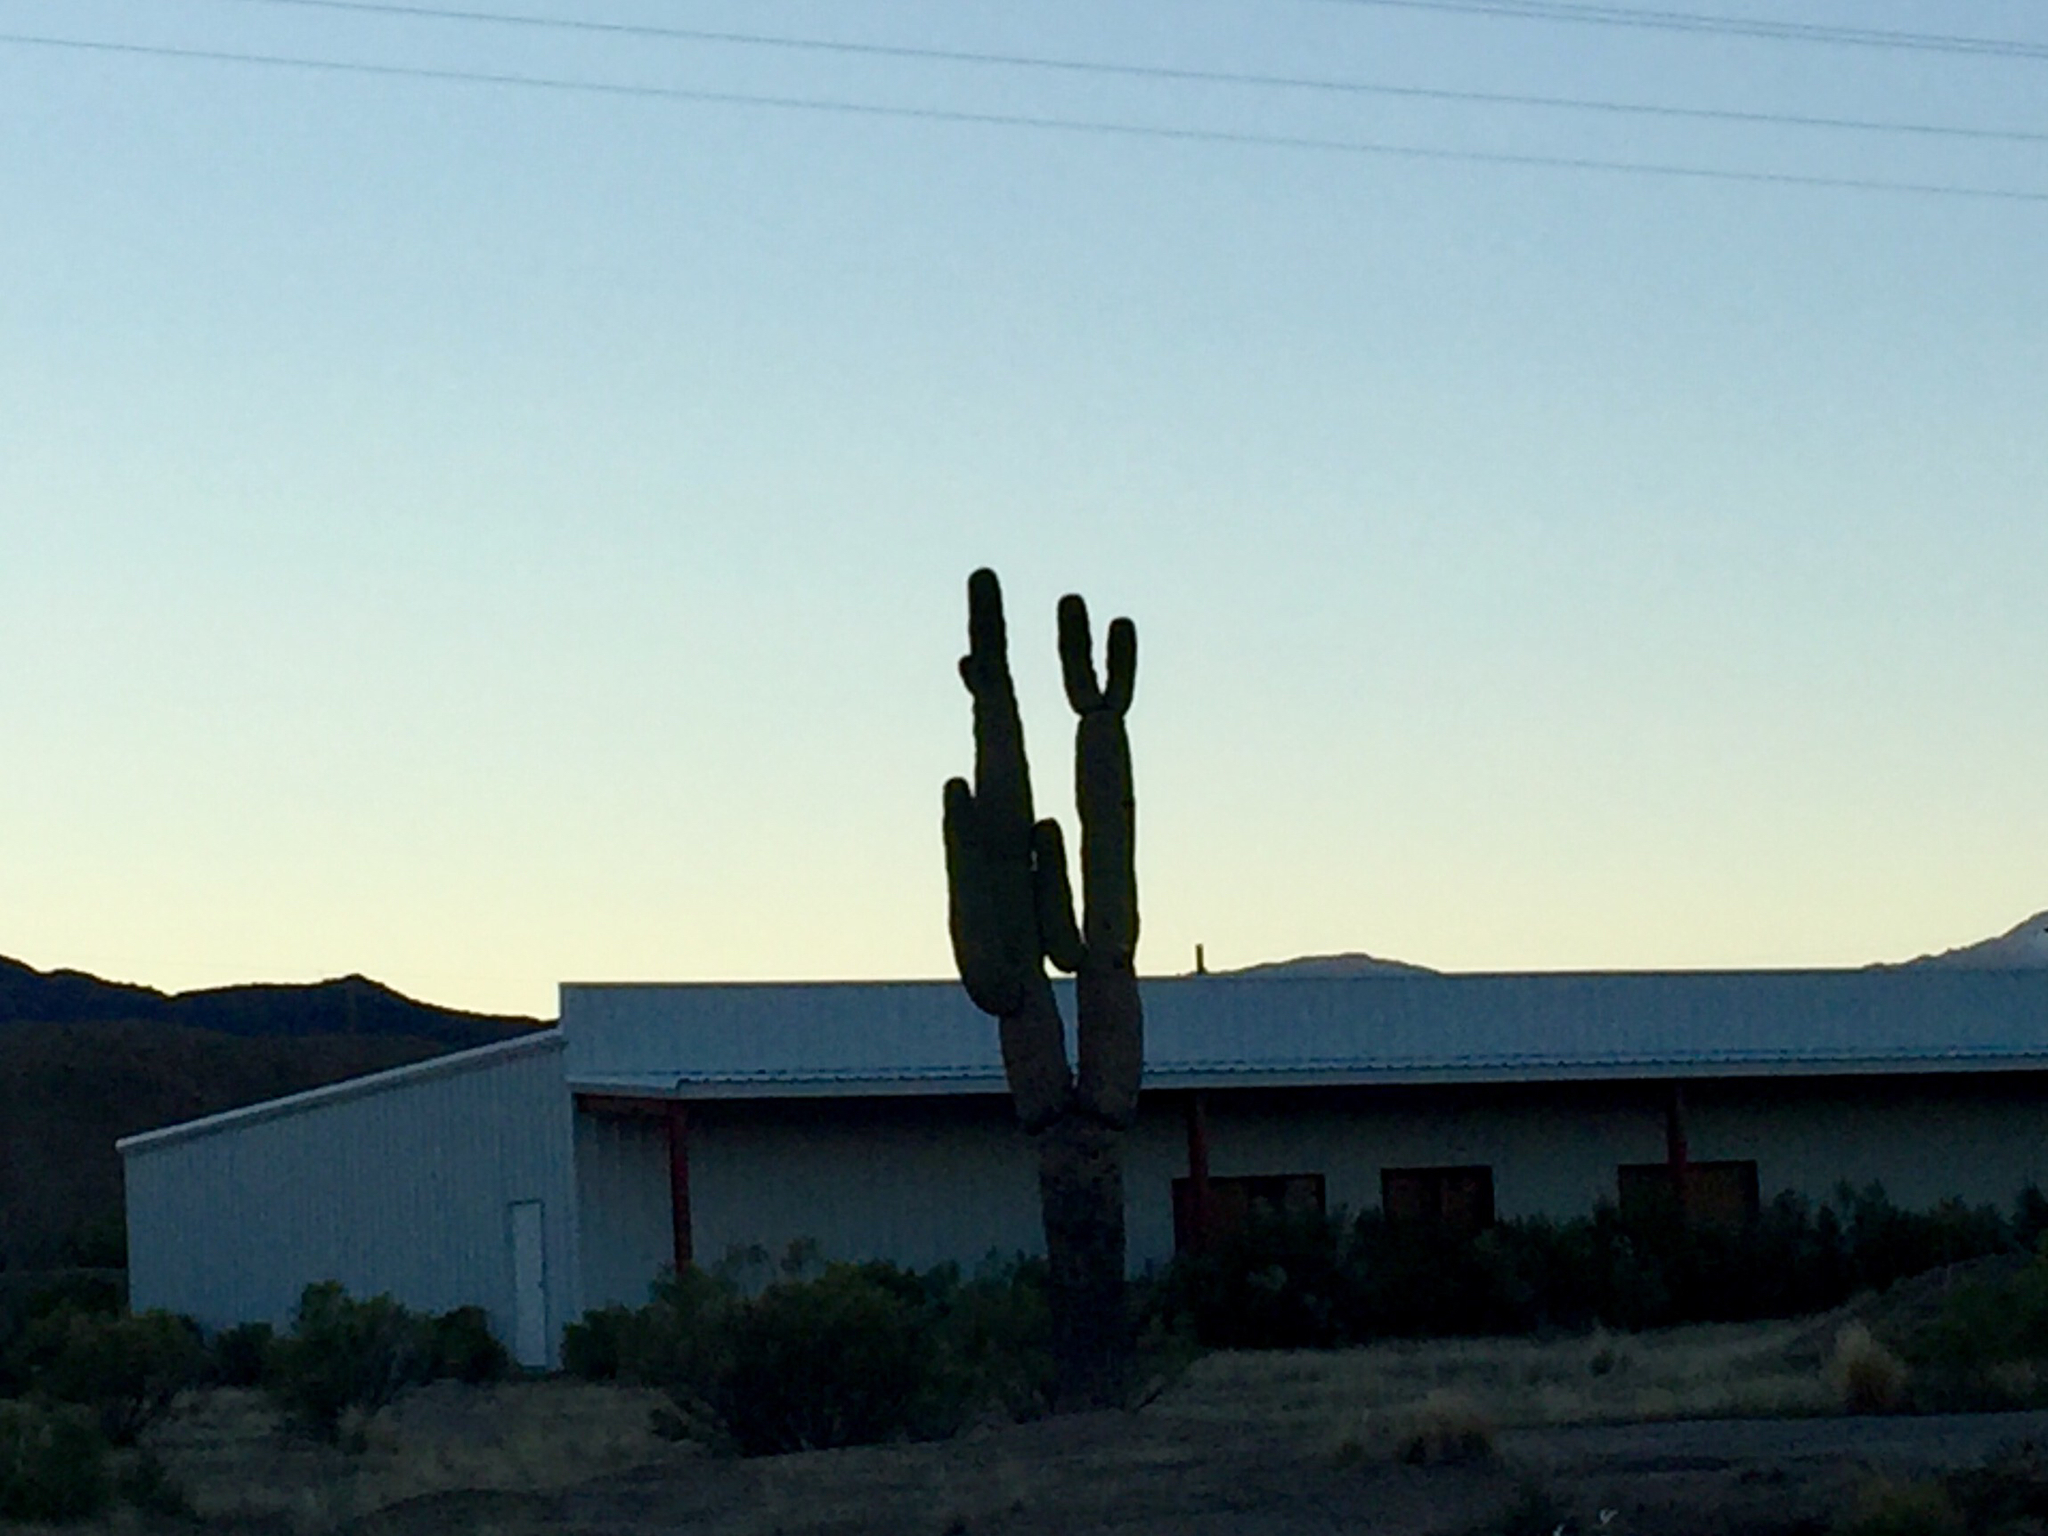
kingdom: Plantae
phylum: Tracheophyta
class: Magnoliopsida
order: Caryophyllales
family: Cactaceae
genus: Carnegiea
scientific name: Carnegiea gigantea
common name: Saguaro
